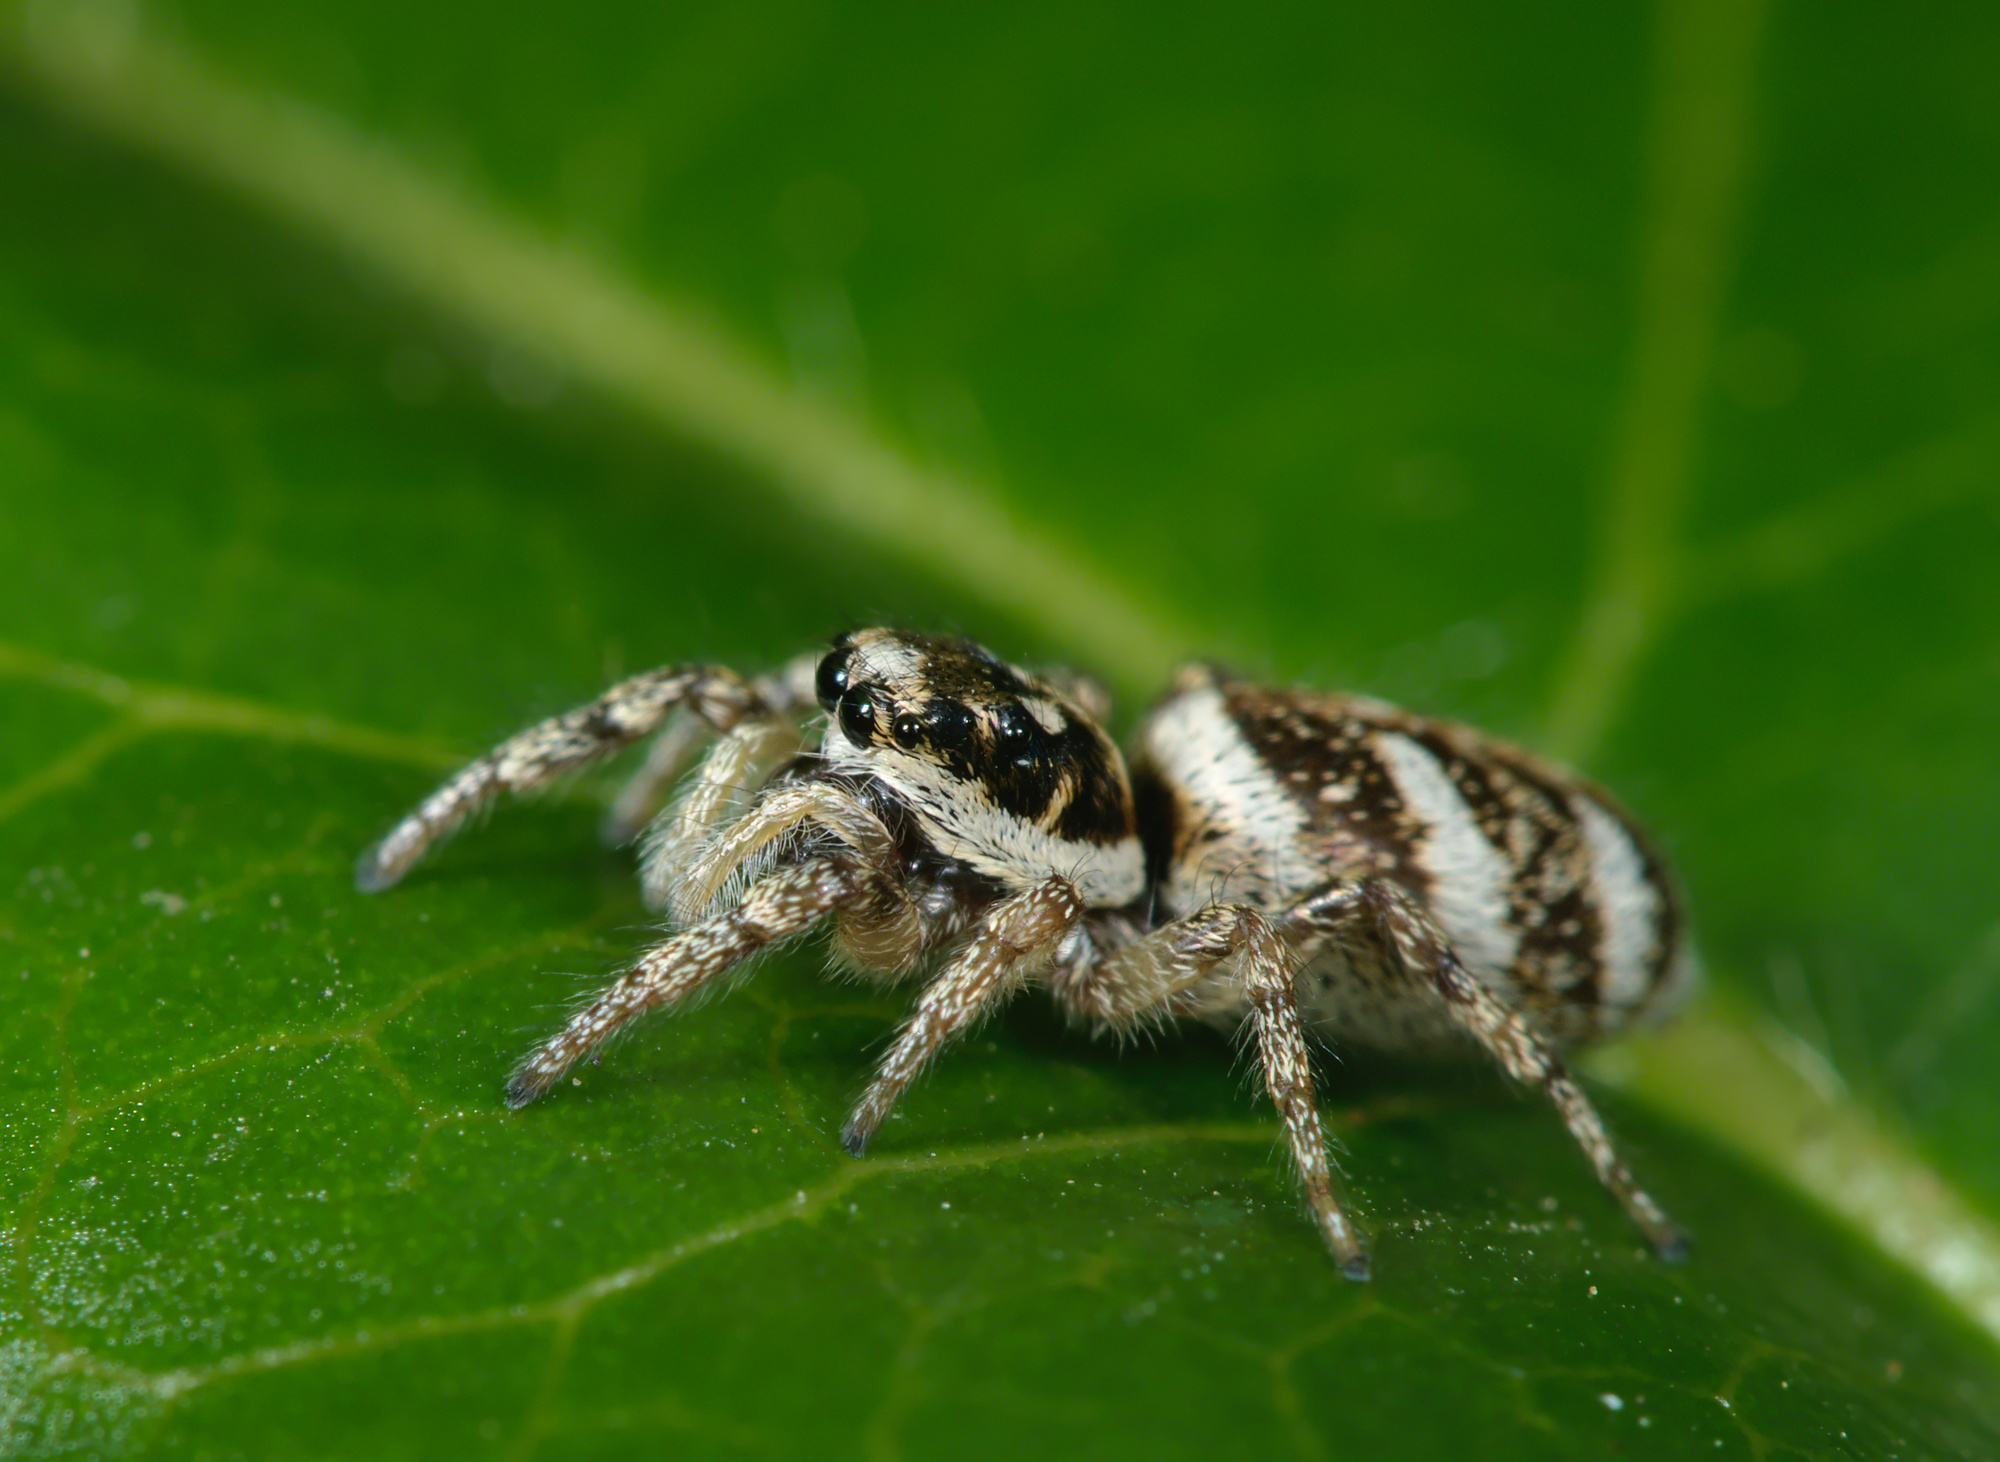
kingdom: Animalia
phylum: Arthropoda
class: Arachnida
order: Araneae
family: Salticidae
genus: Salticus
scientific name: Salticus scenicus
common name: Zebra jumper
